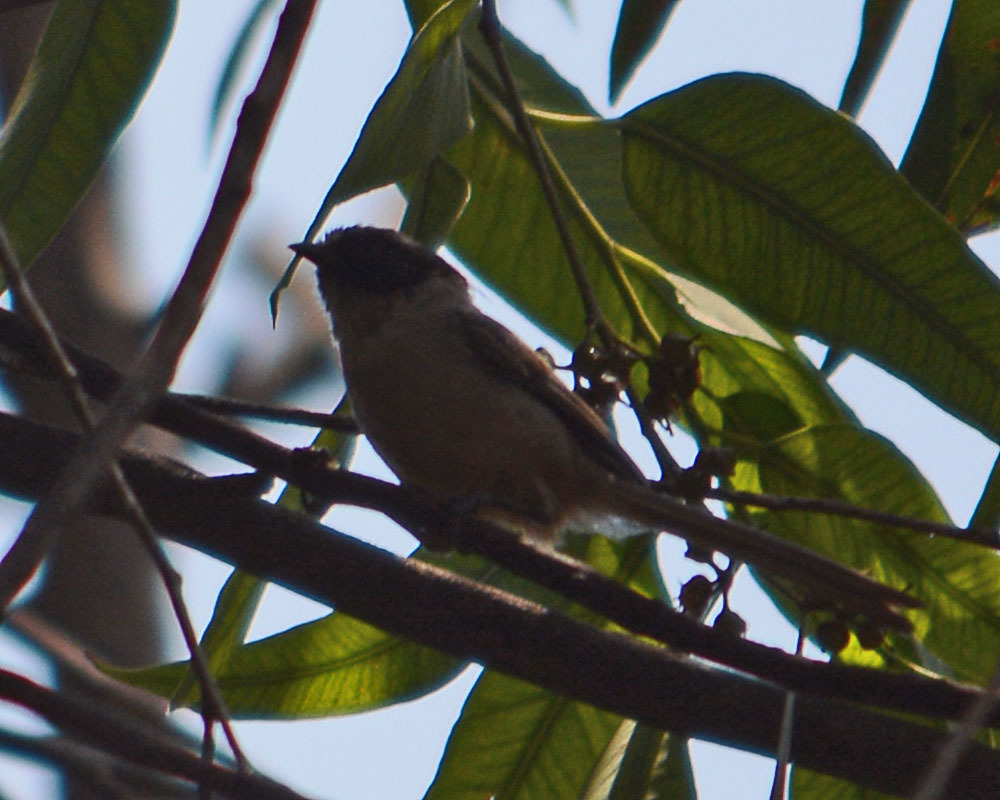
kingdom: Animalia
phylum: Chordata
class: Aves
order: Passeriformes
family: Aegithalidae
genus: Psaltriparus
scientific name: Psaltriparus minimus
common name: American bushtit
